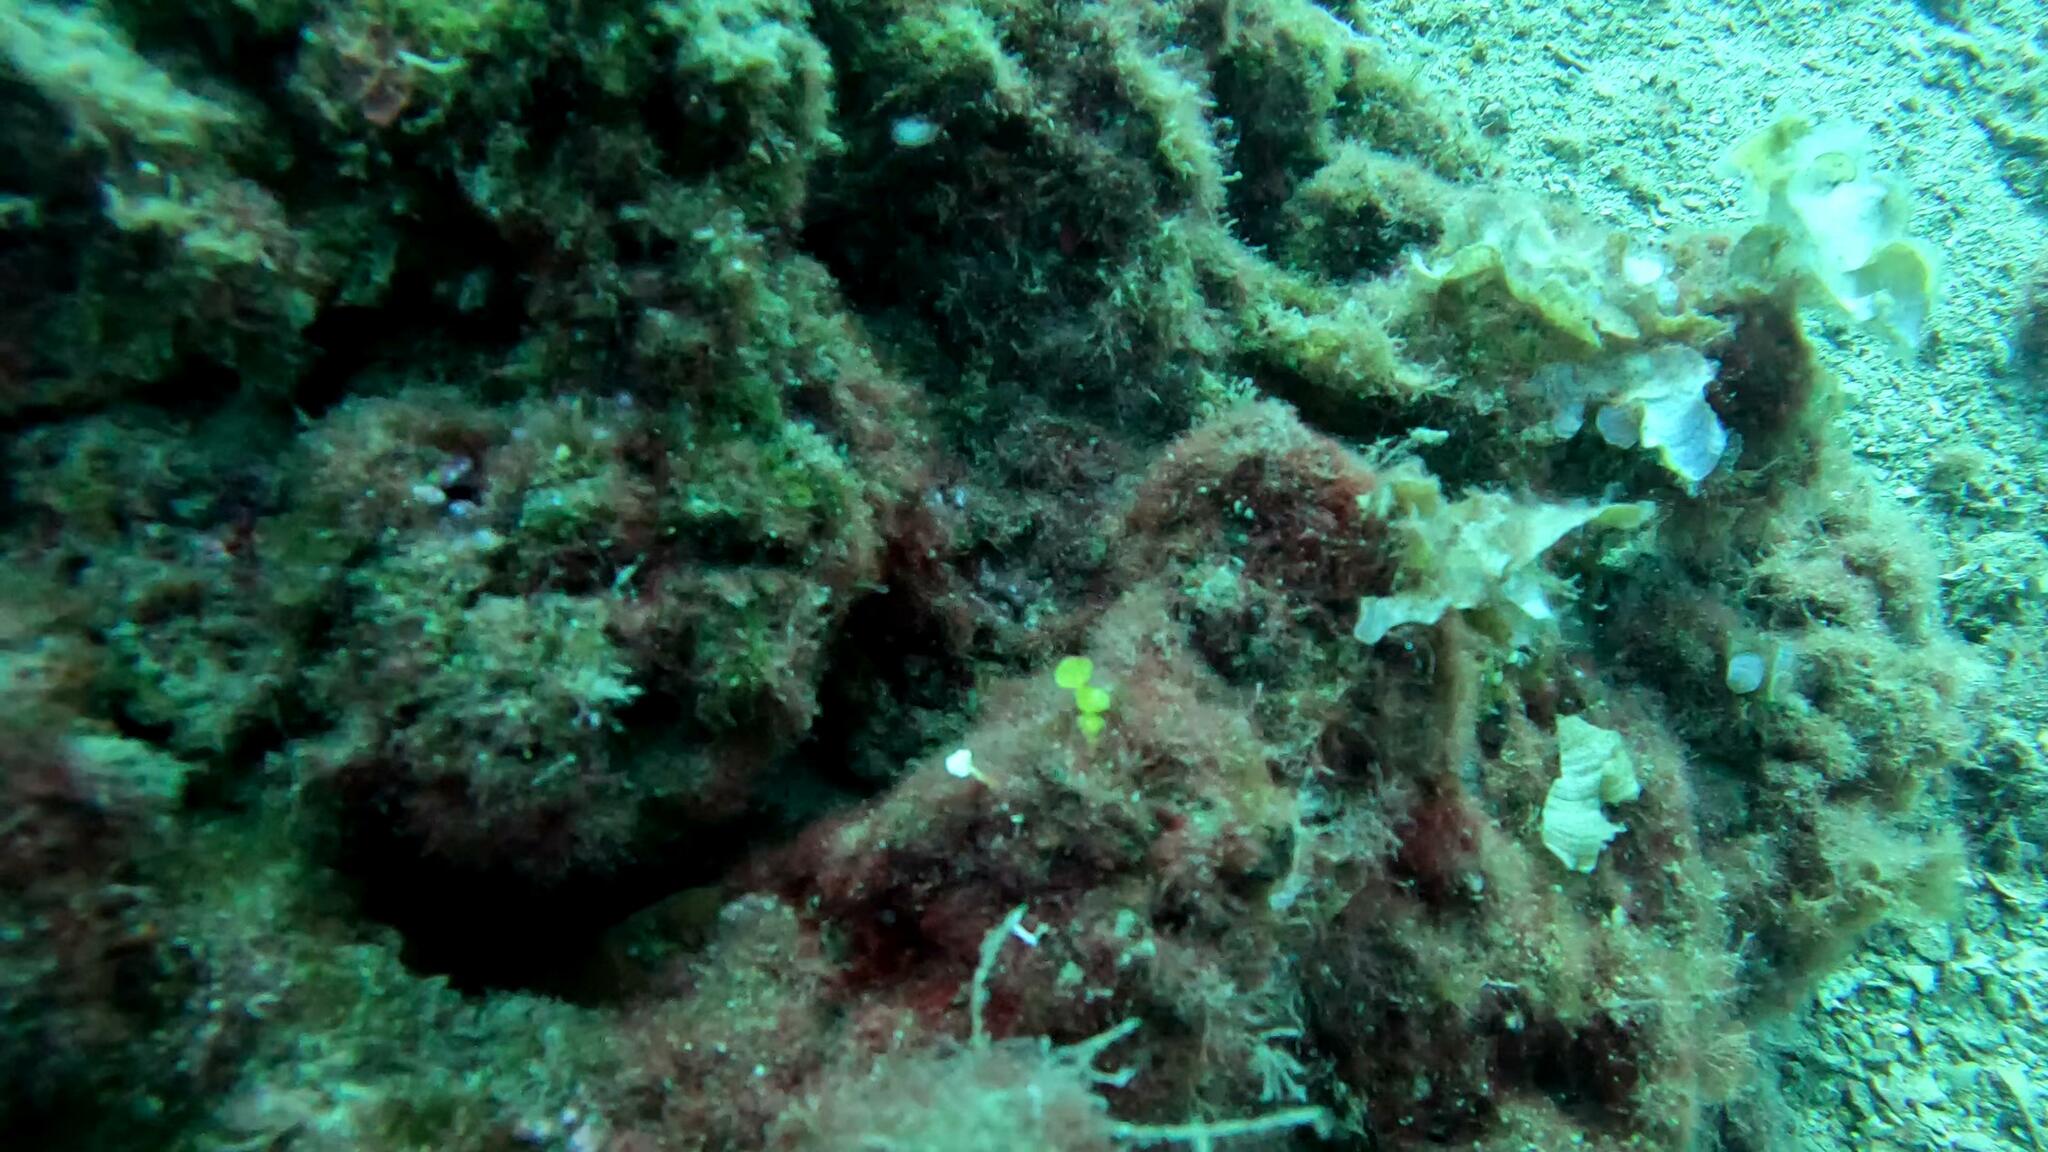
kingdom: Plantae
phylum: Chlorophyta
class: Ulvophyceae
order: Bryopsidales
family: Halimedaceae
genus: Halimeda
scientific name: Halimeda tuna
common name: Stalked lettuce leaf algae
